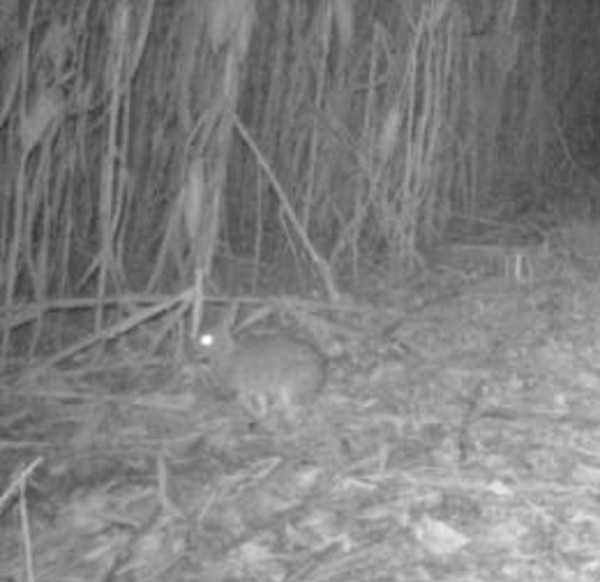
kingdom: Animalia
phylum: Chordata
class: Mammalia
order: Lagomorpha
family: Leporidae
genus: Sylvilagus
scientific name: Sylvilagus floridanus
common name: Eastern cottontail
